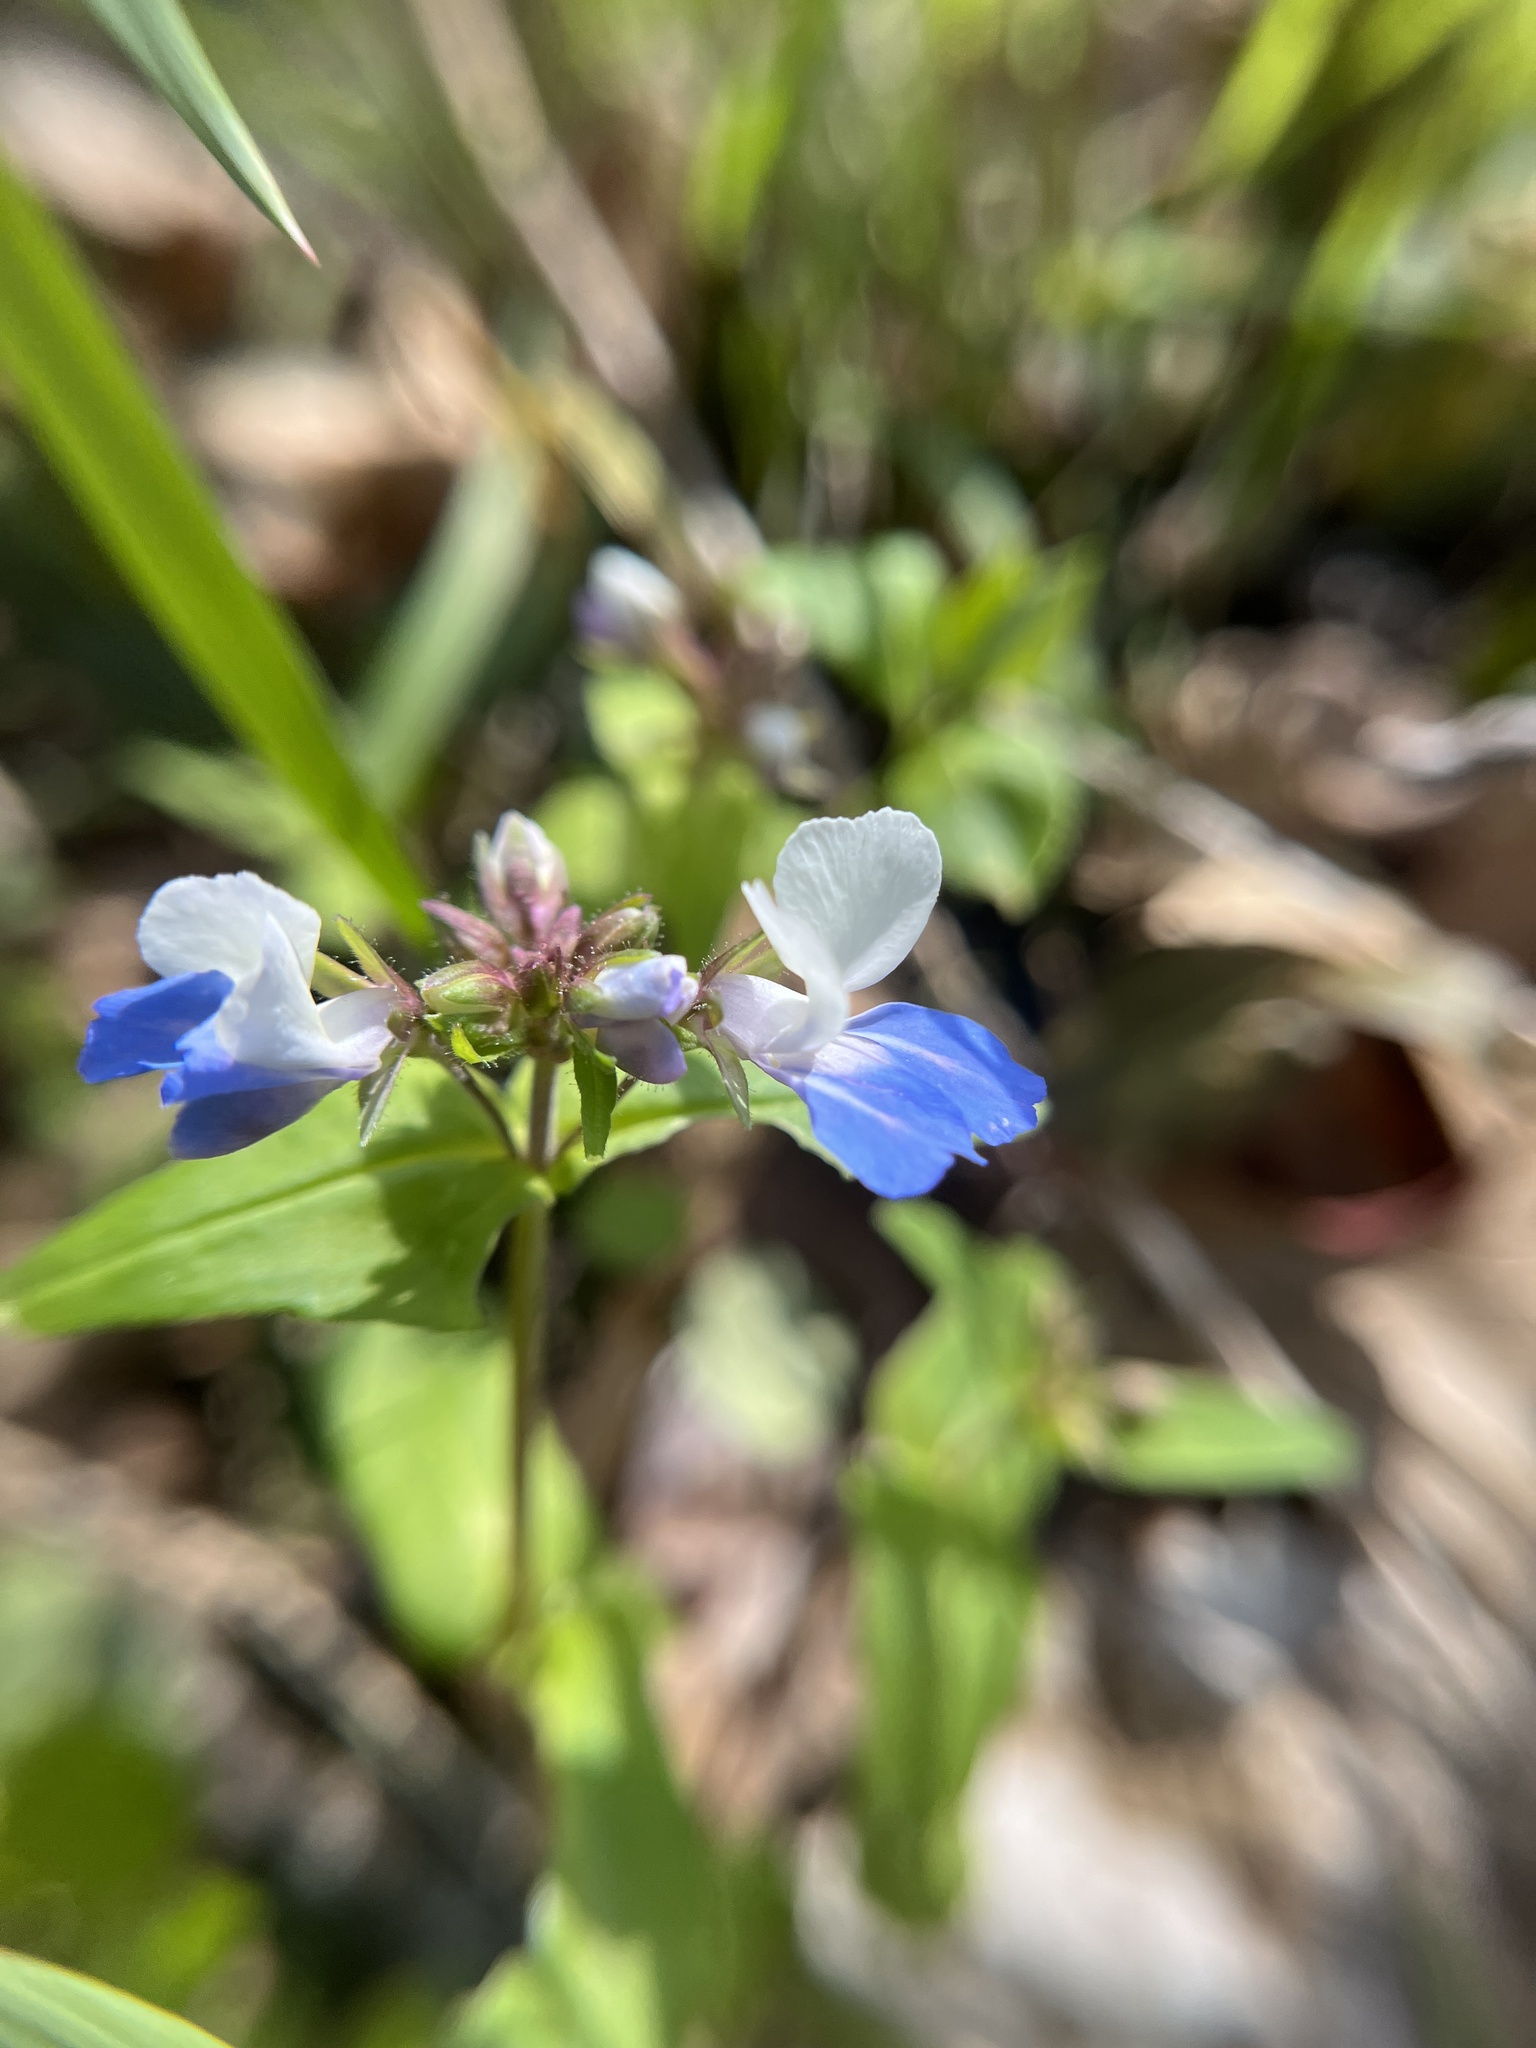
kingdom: Plantae
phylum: Tracheophyta
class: Magnoliopsida
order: Lamiales
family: Plantaginaceae
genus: Collinsia
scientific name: Collinsia verna
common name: Broad-leaved collinsia
